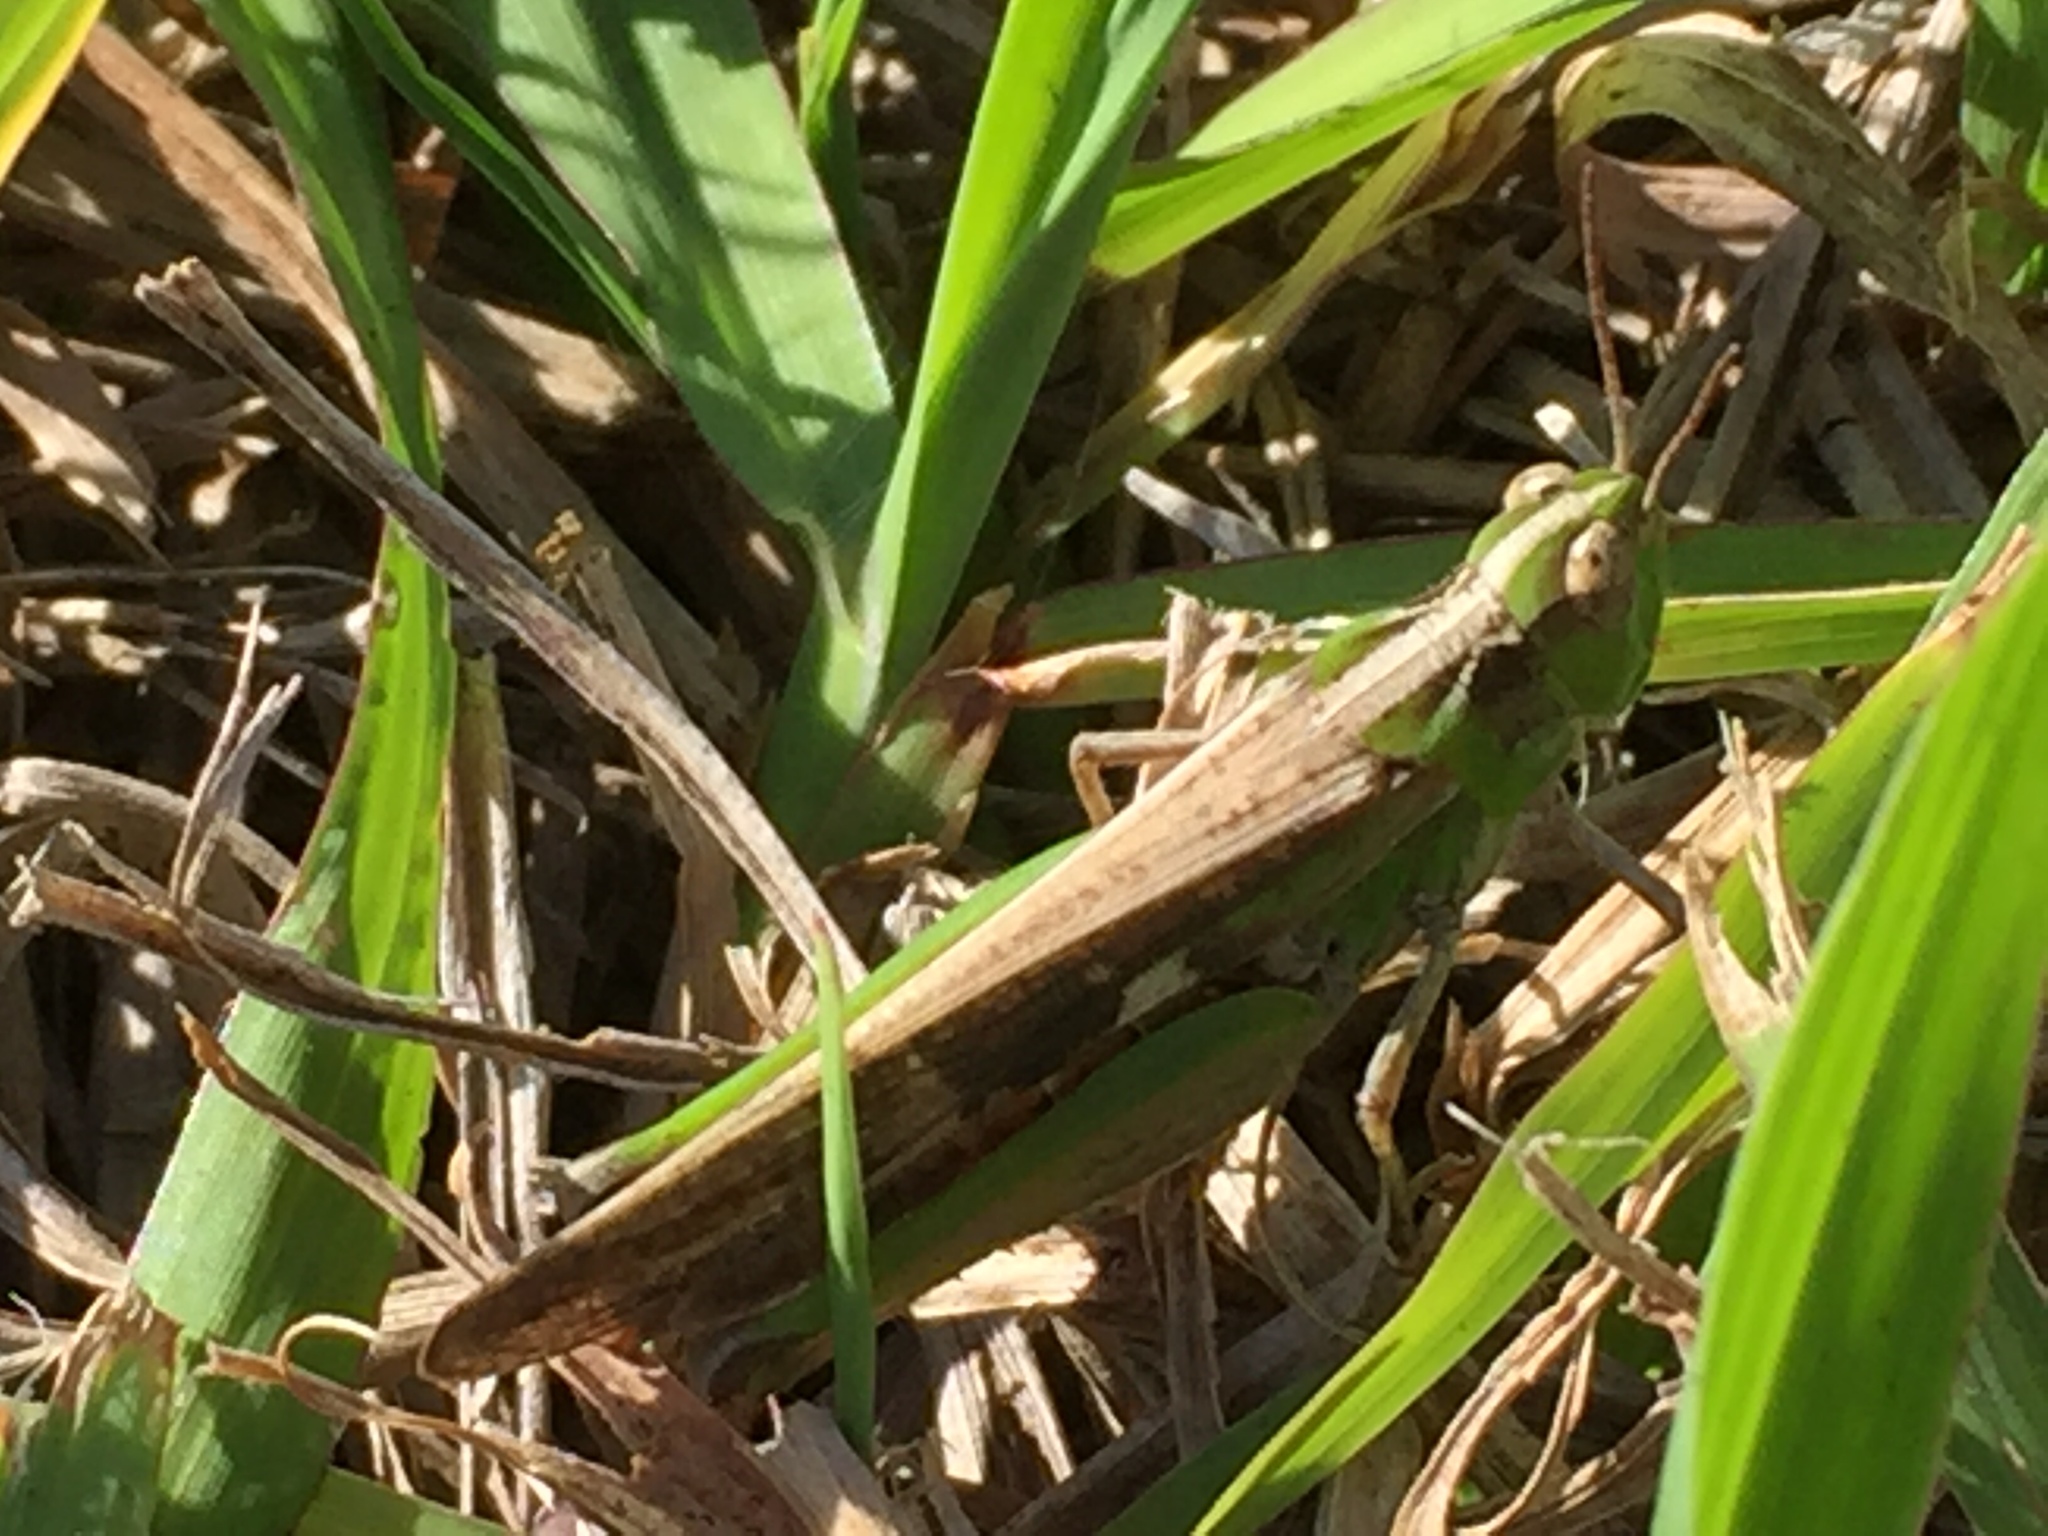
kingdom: Animalia
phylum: Arthropoda
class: Insecta
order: Orthoptera
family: Acrididae
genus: Aiolopus
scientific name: Aiolopus thalassinus
